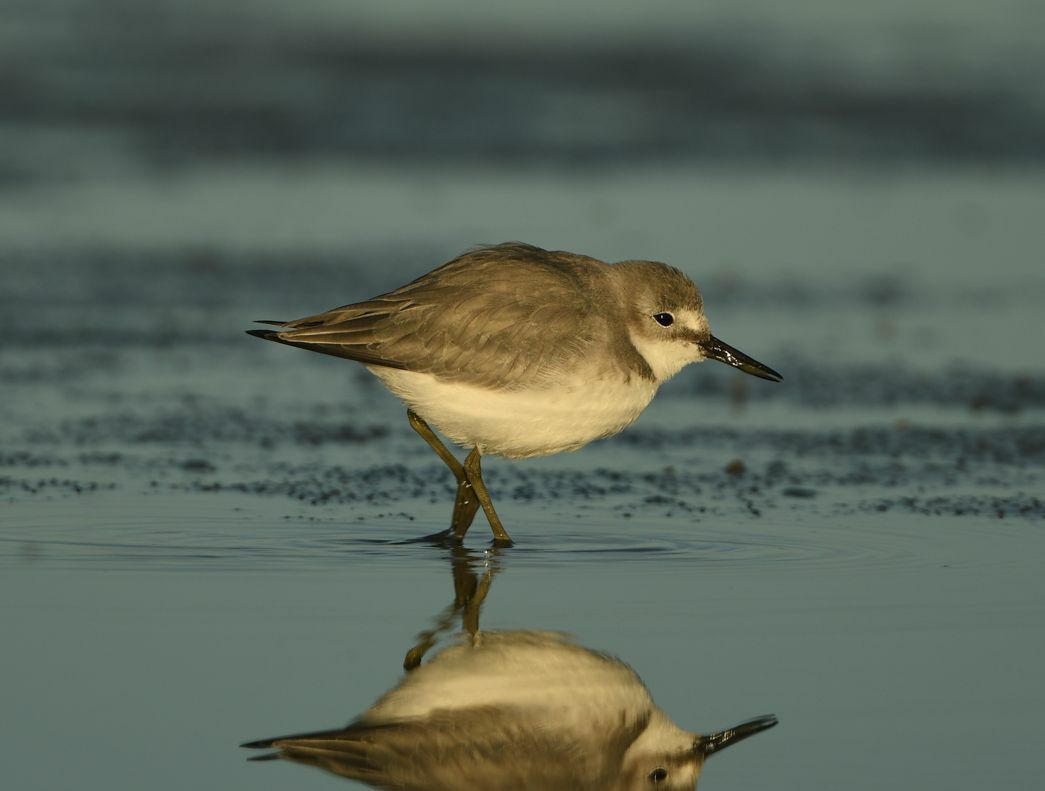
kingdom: Animalia
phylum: Chordata
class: Aves
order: Charadriiformes
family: Charadriidae
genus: Anarhynchus
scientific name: Anarhynchus frontalis
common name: Wrybill
